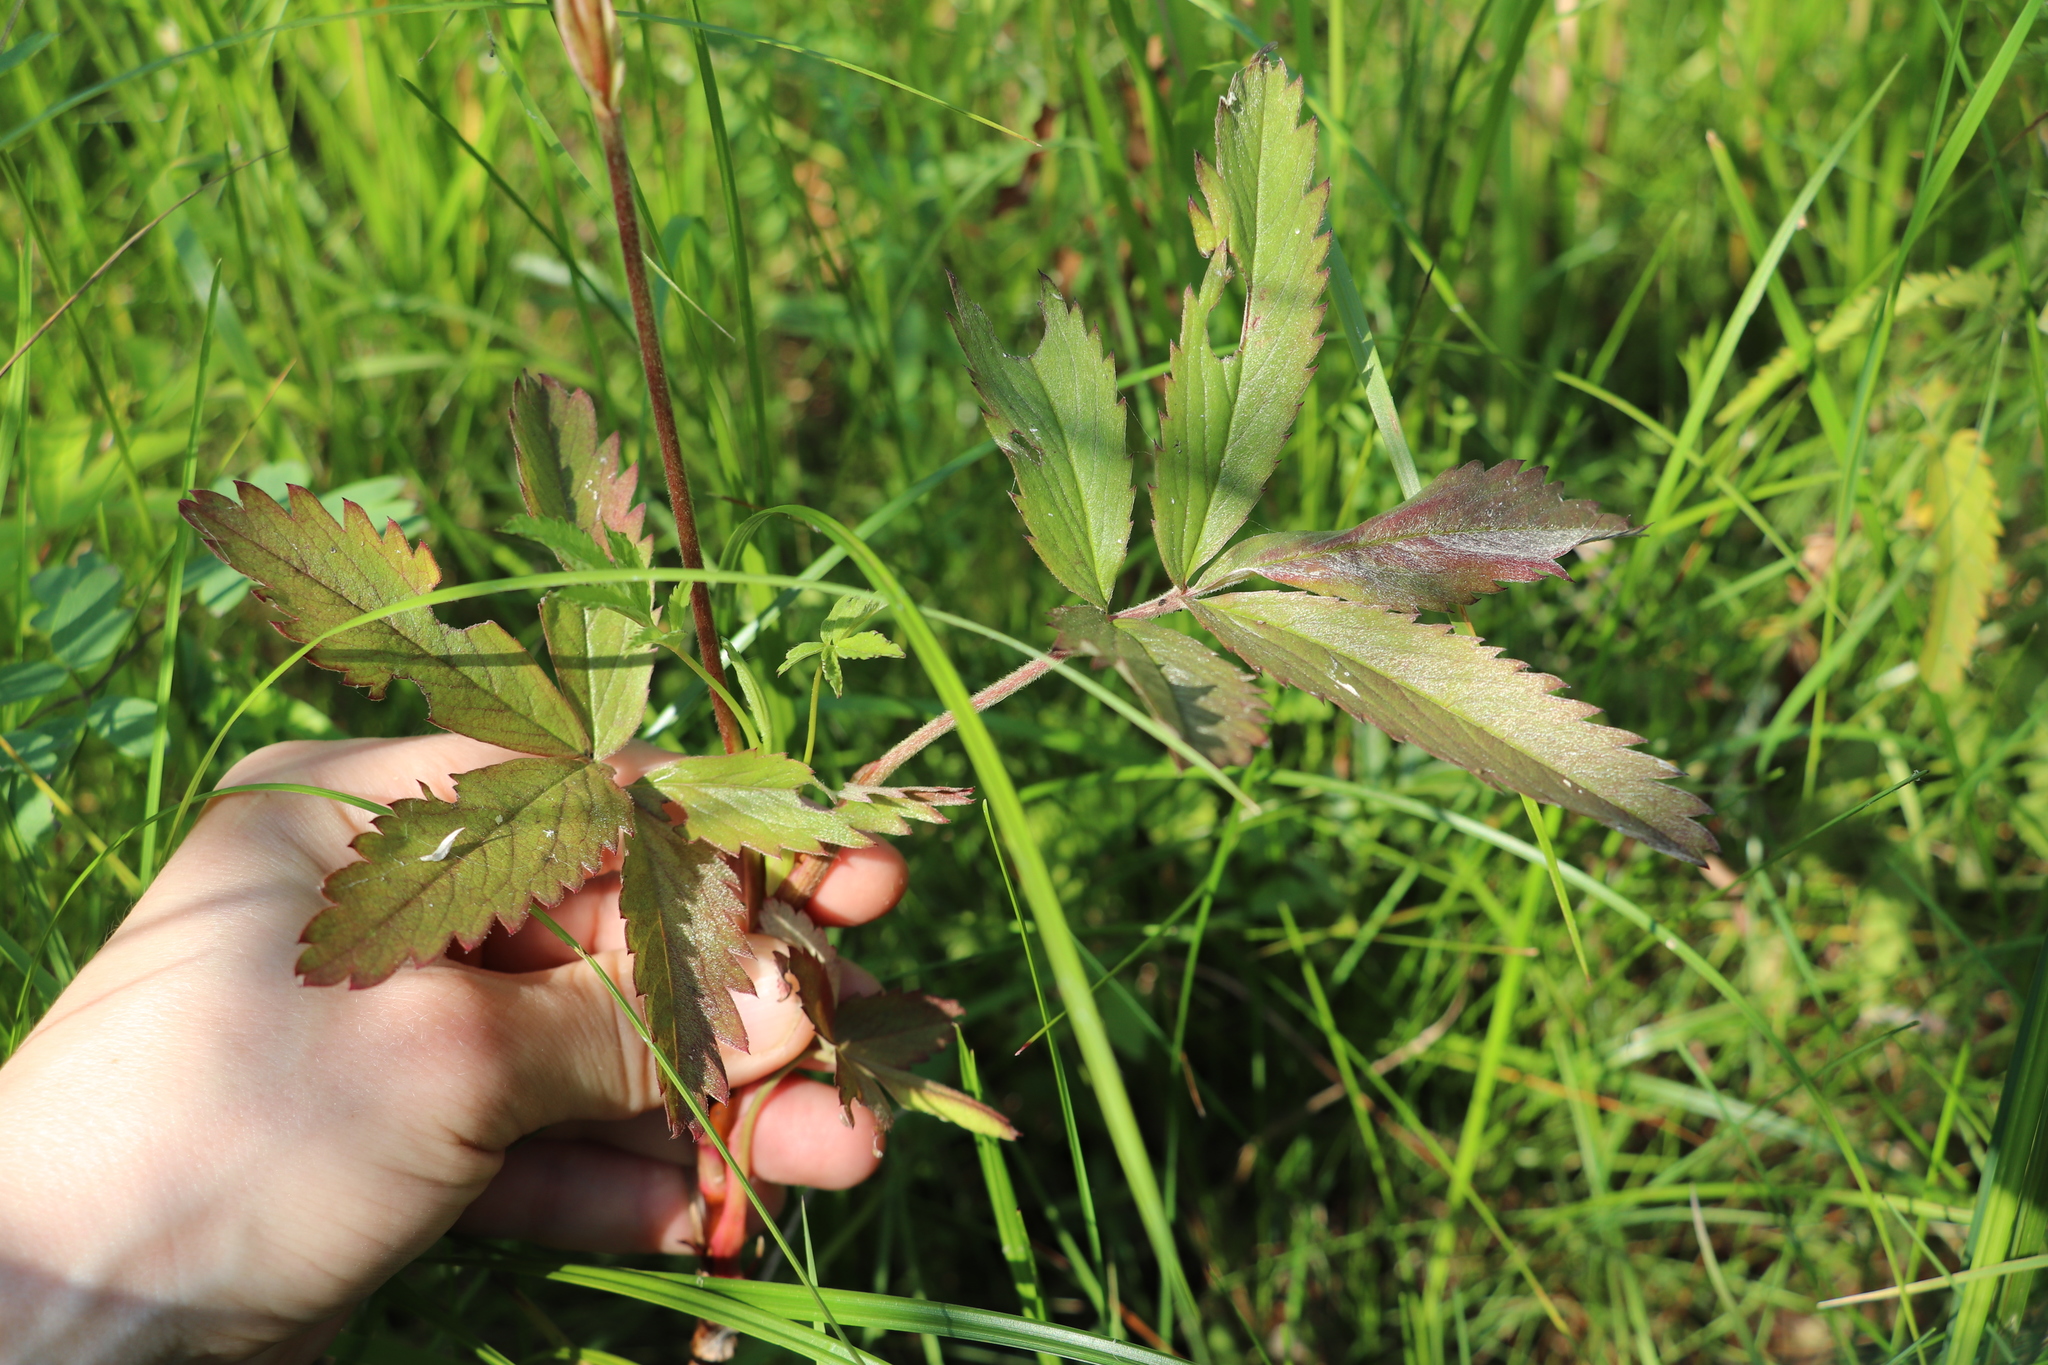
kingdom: Plantae
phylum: Tracheophyta
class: Magnoliopsida
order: Rosales
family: Rosaceae
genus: Comarum
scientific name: Comarum palustre
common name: Marsh cinquefoil
